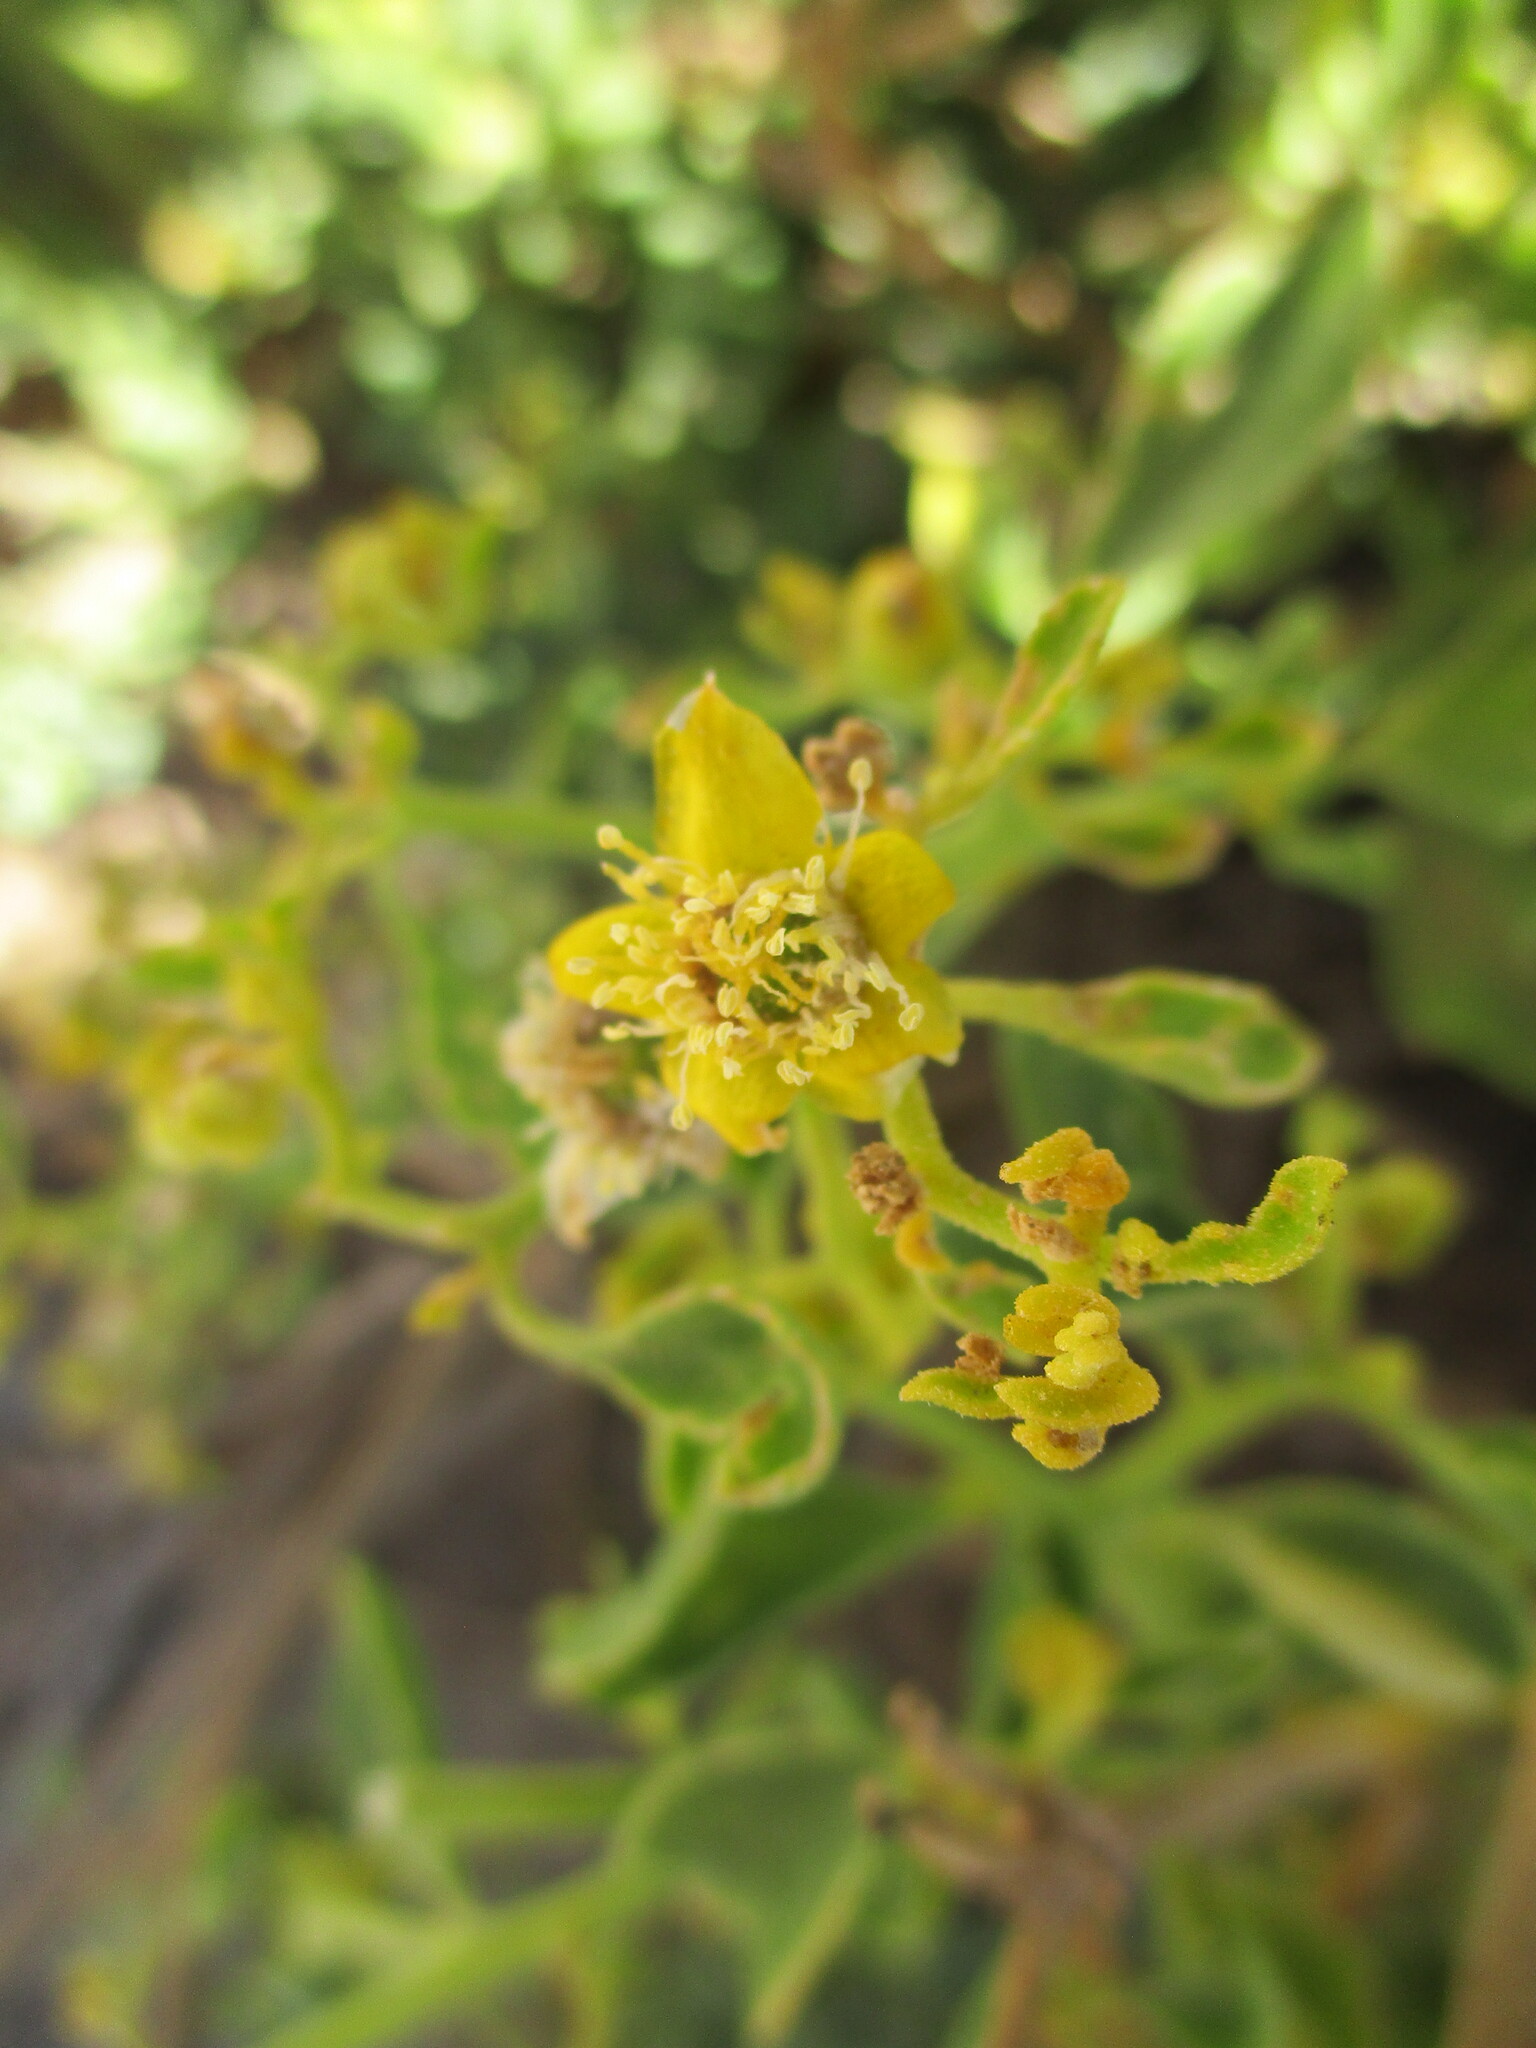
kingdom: Plantae
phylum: Tracheophyta
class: Magnoliopsida
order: Caryophyllales
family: Aizoaceae
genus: Aizoanthemum
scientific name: Aizoanthemum dinteri
